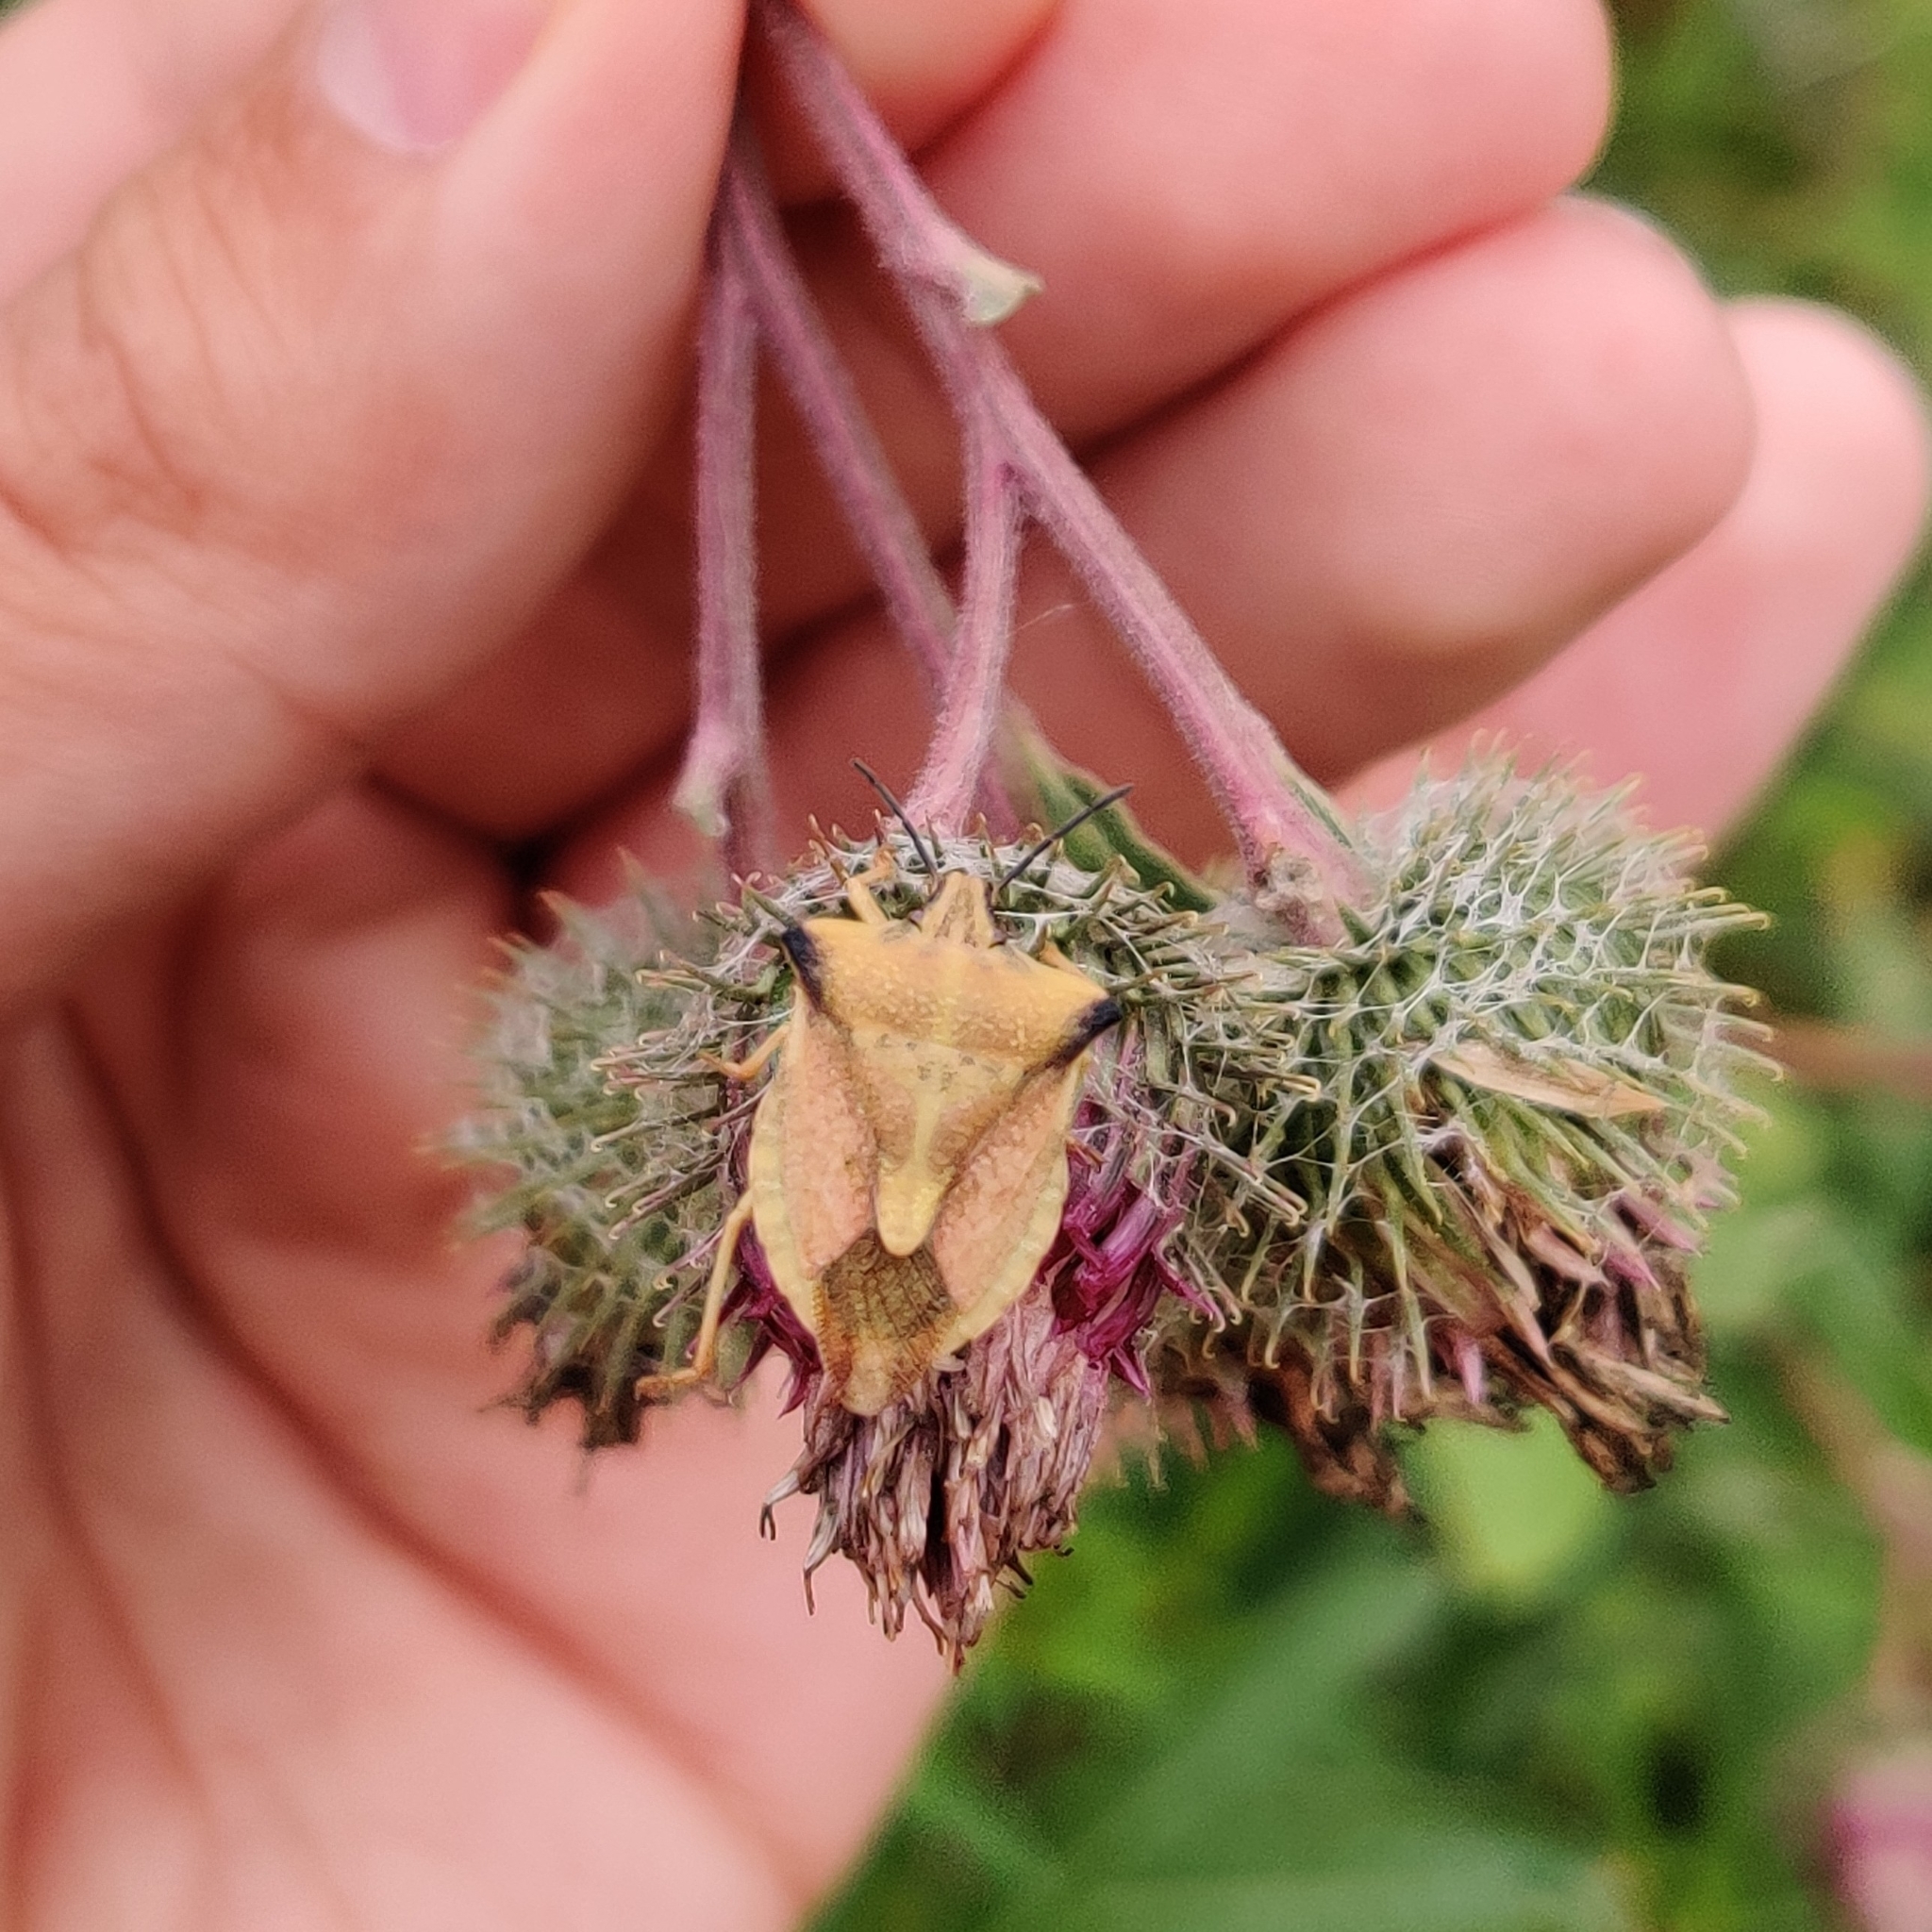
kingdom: Animalia
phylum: Arthropoda
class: Insecta
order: Hemiptera
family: Pentatomidae
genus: Carpocoris
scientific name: Carpocoris fuscispinus
